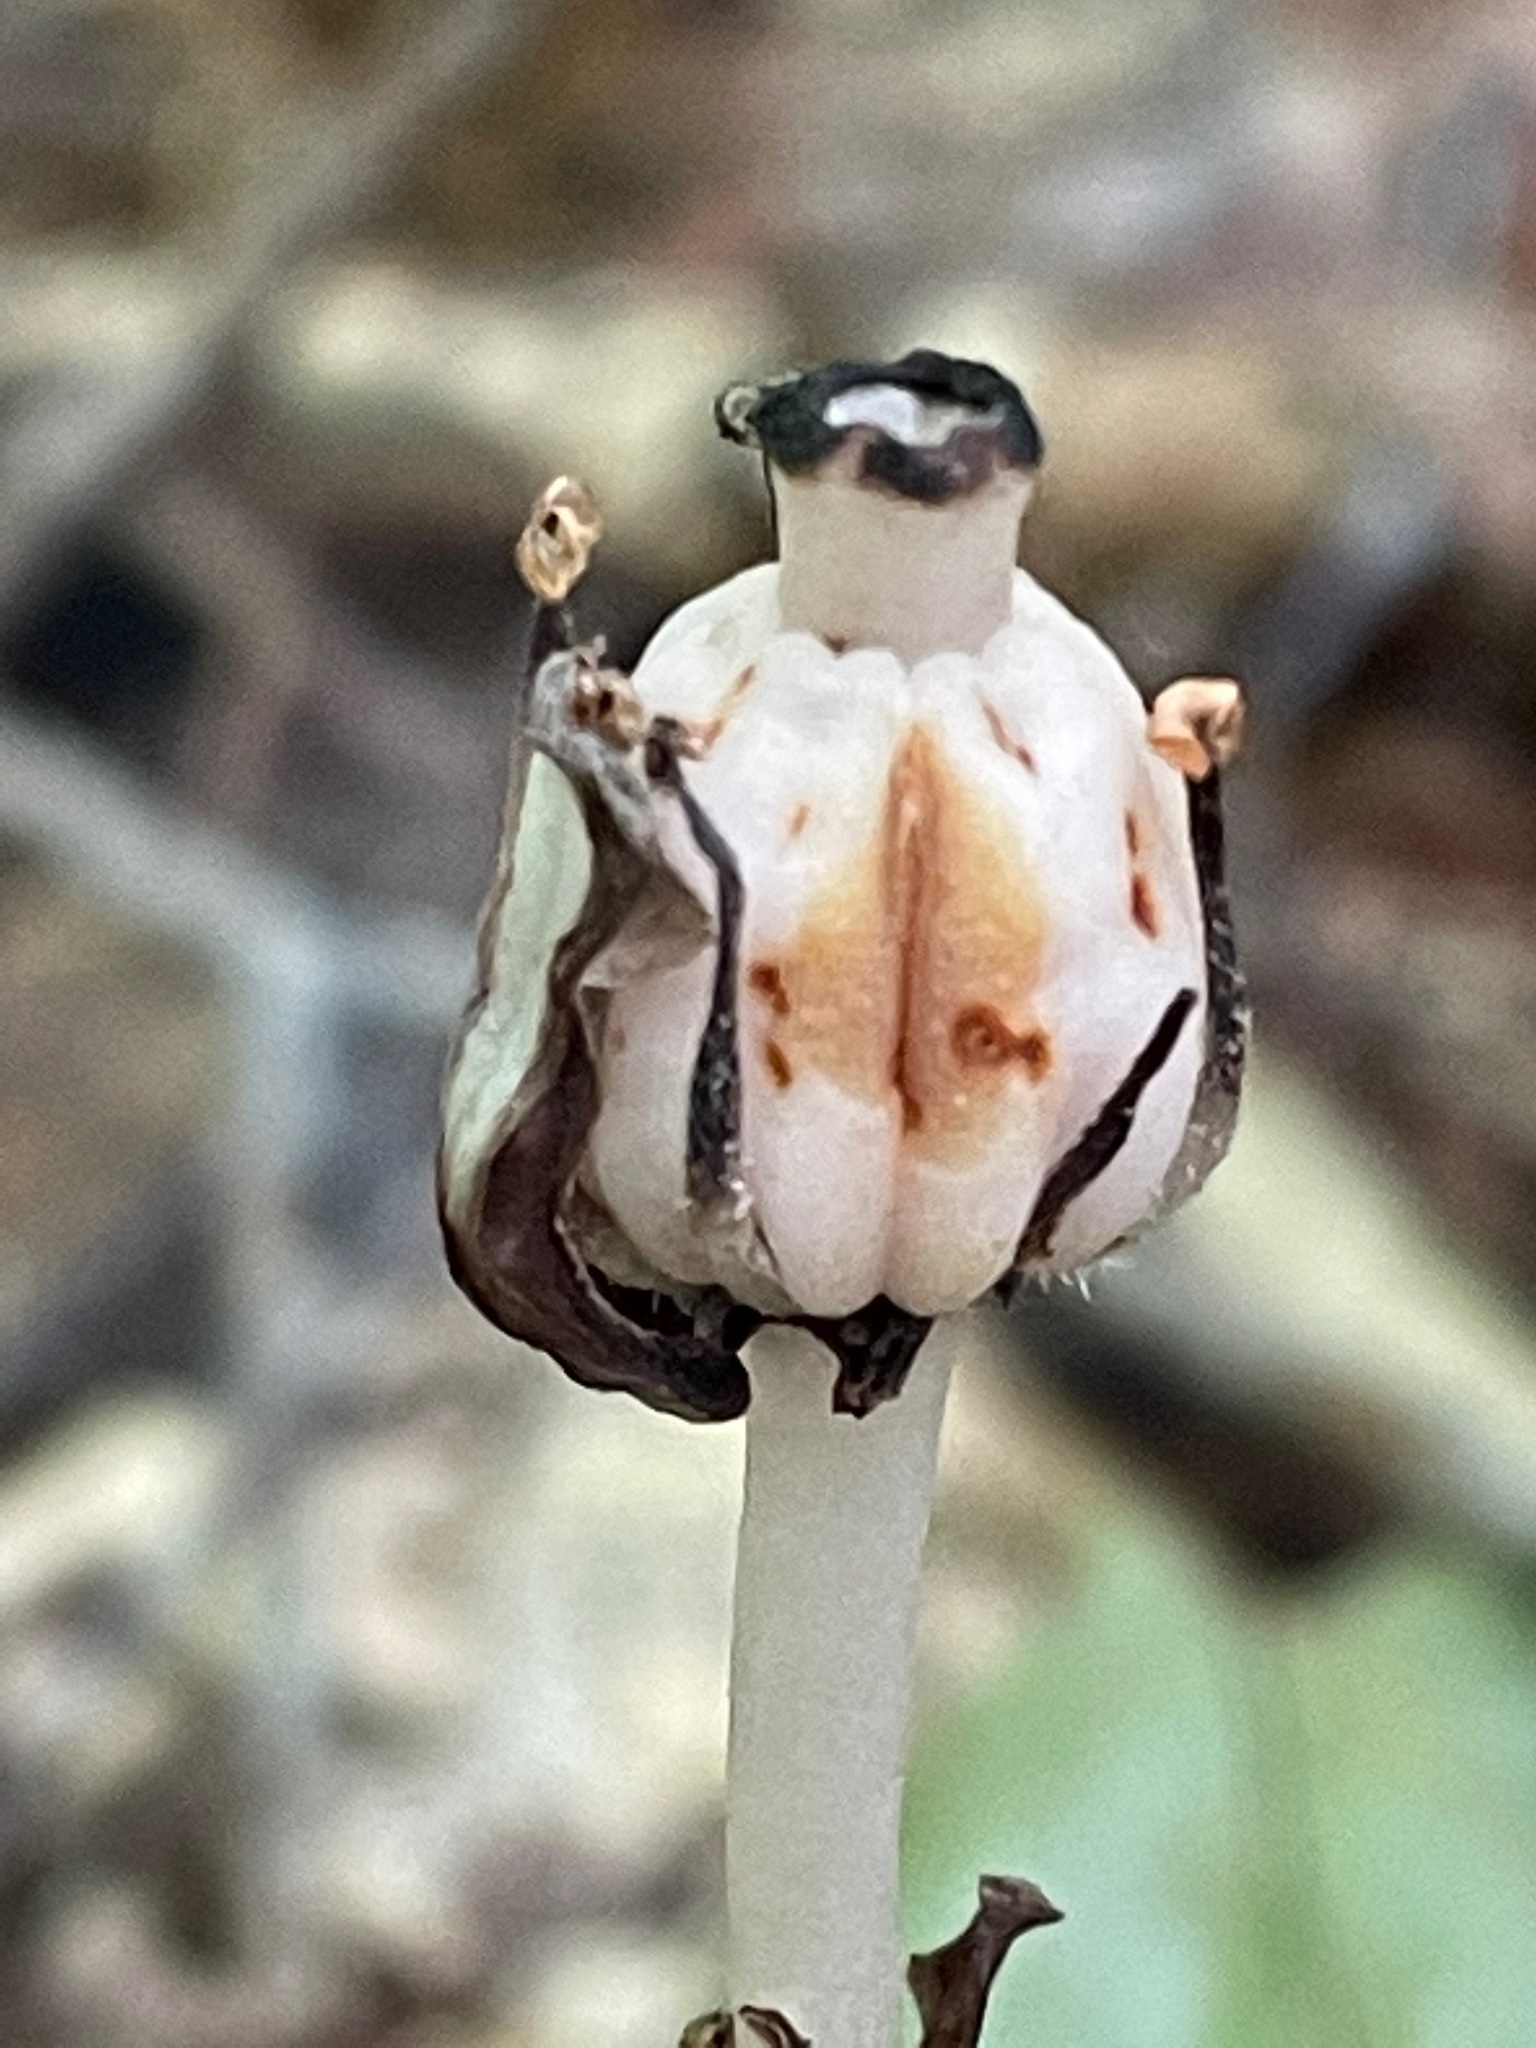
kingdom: Plantae
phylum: Tracheophyta
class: Magnoliopsida
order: Ericales
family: Ericaceae
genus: Monotropa
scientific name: Monotropa uniflora
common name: Convulsion root
